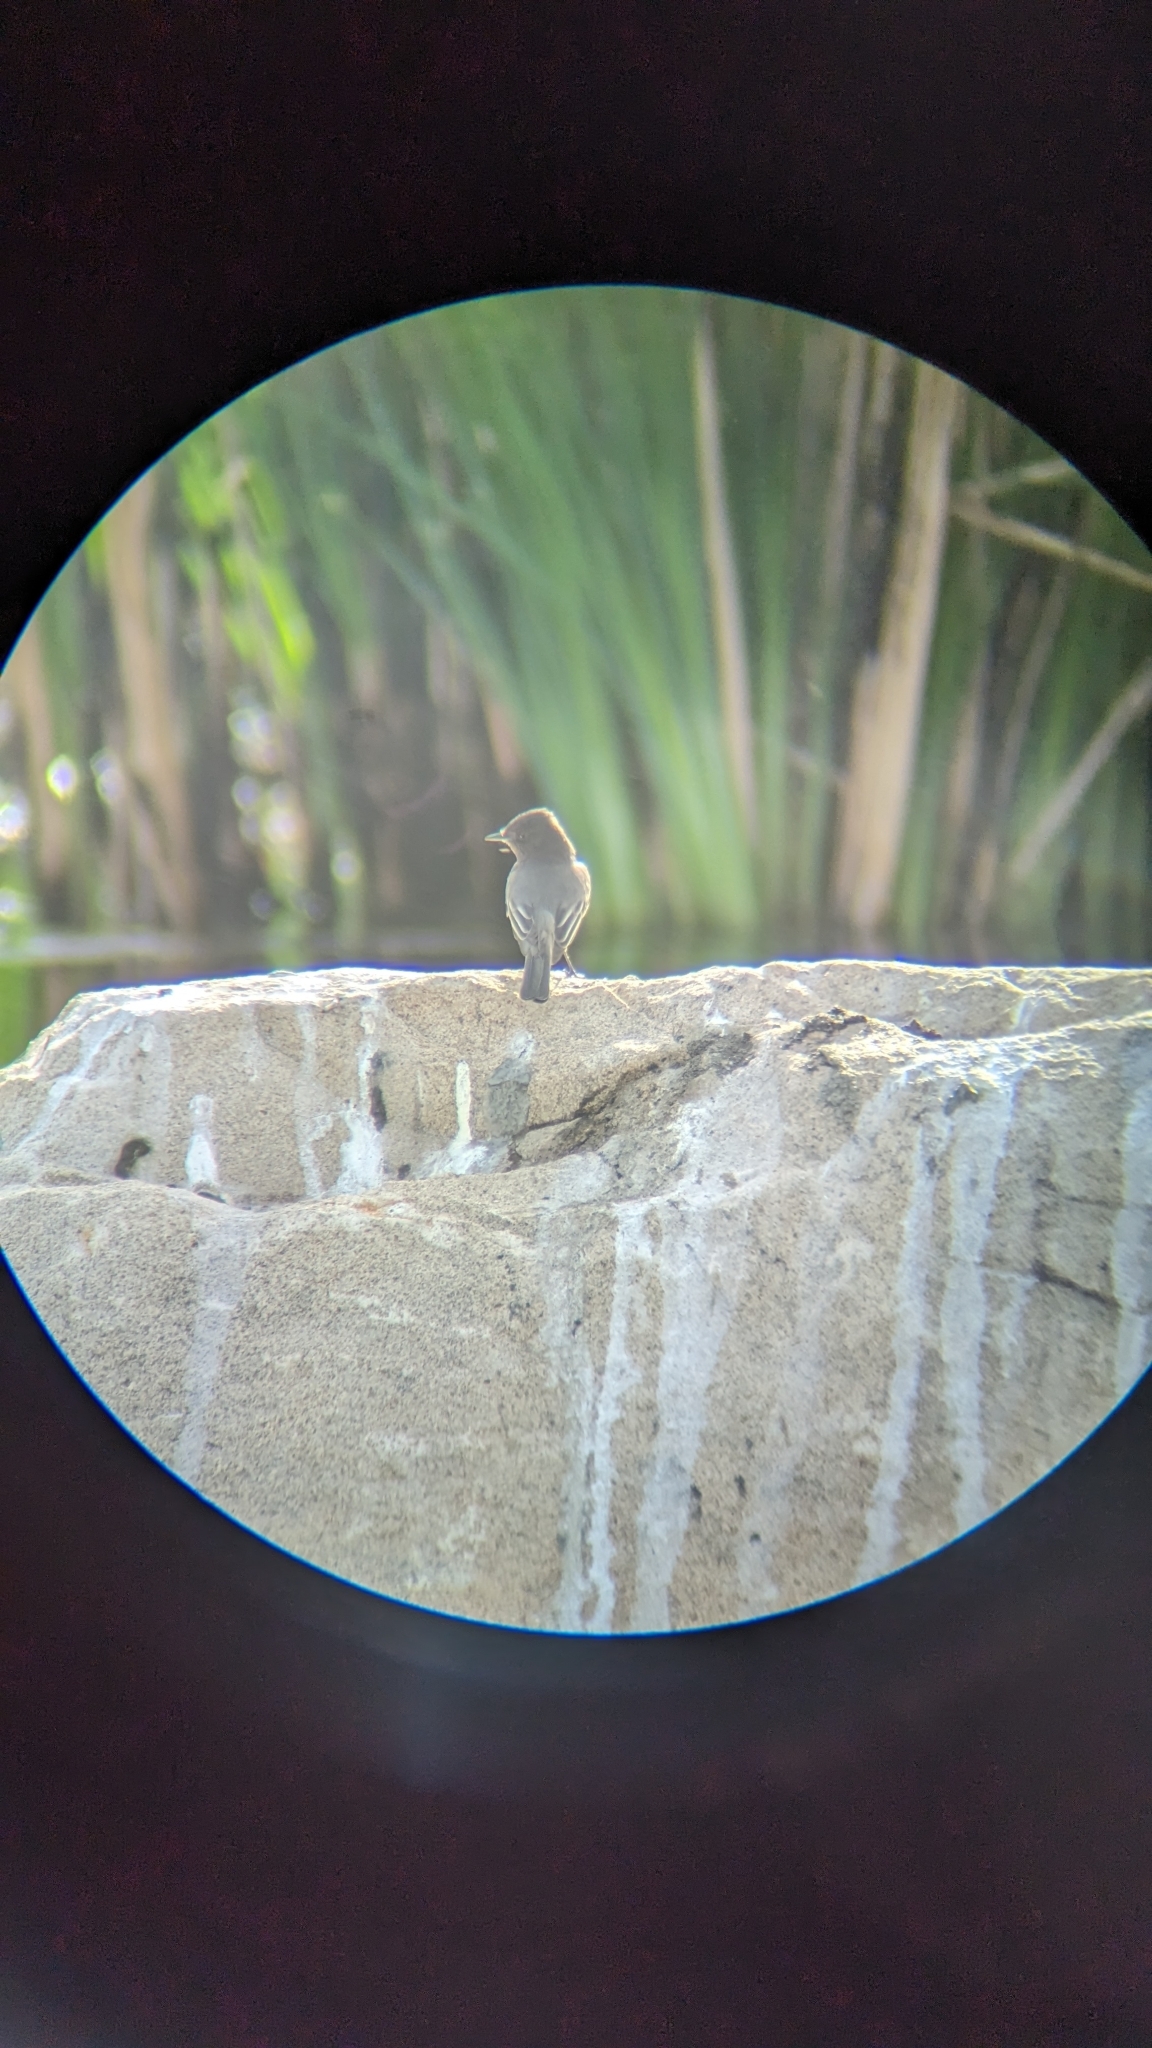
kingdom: Animalia
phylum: Chordata
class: Aves
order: Passeriformes
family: Tyrannidae
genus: Sayornis
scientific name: Sayornis nigricans
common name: Black phoebe
